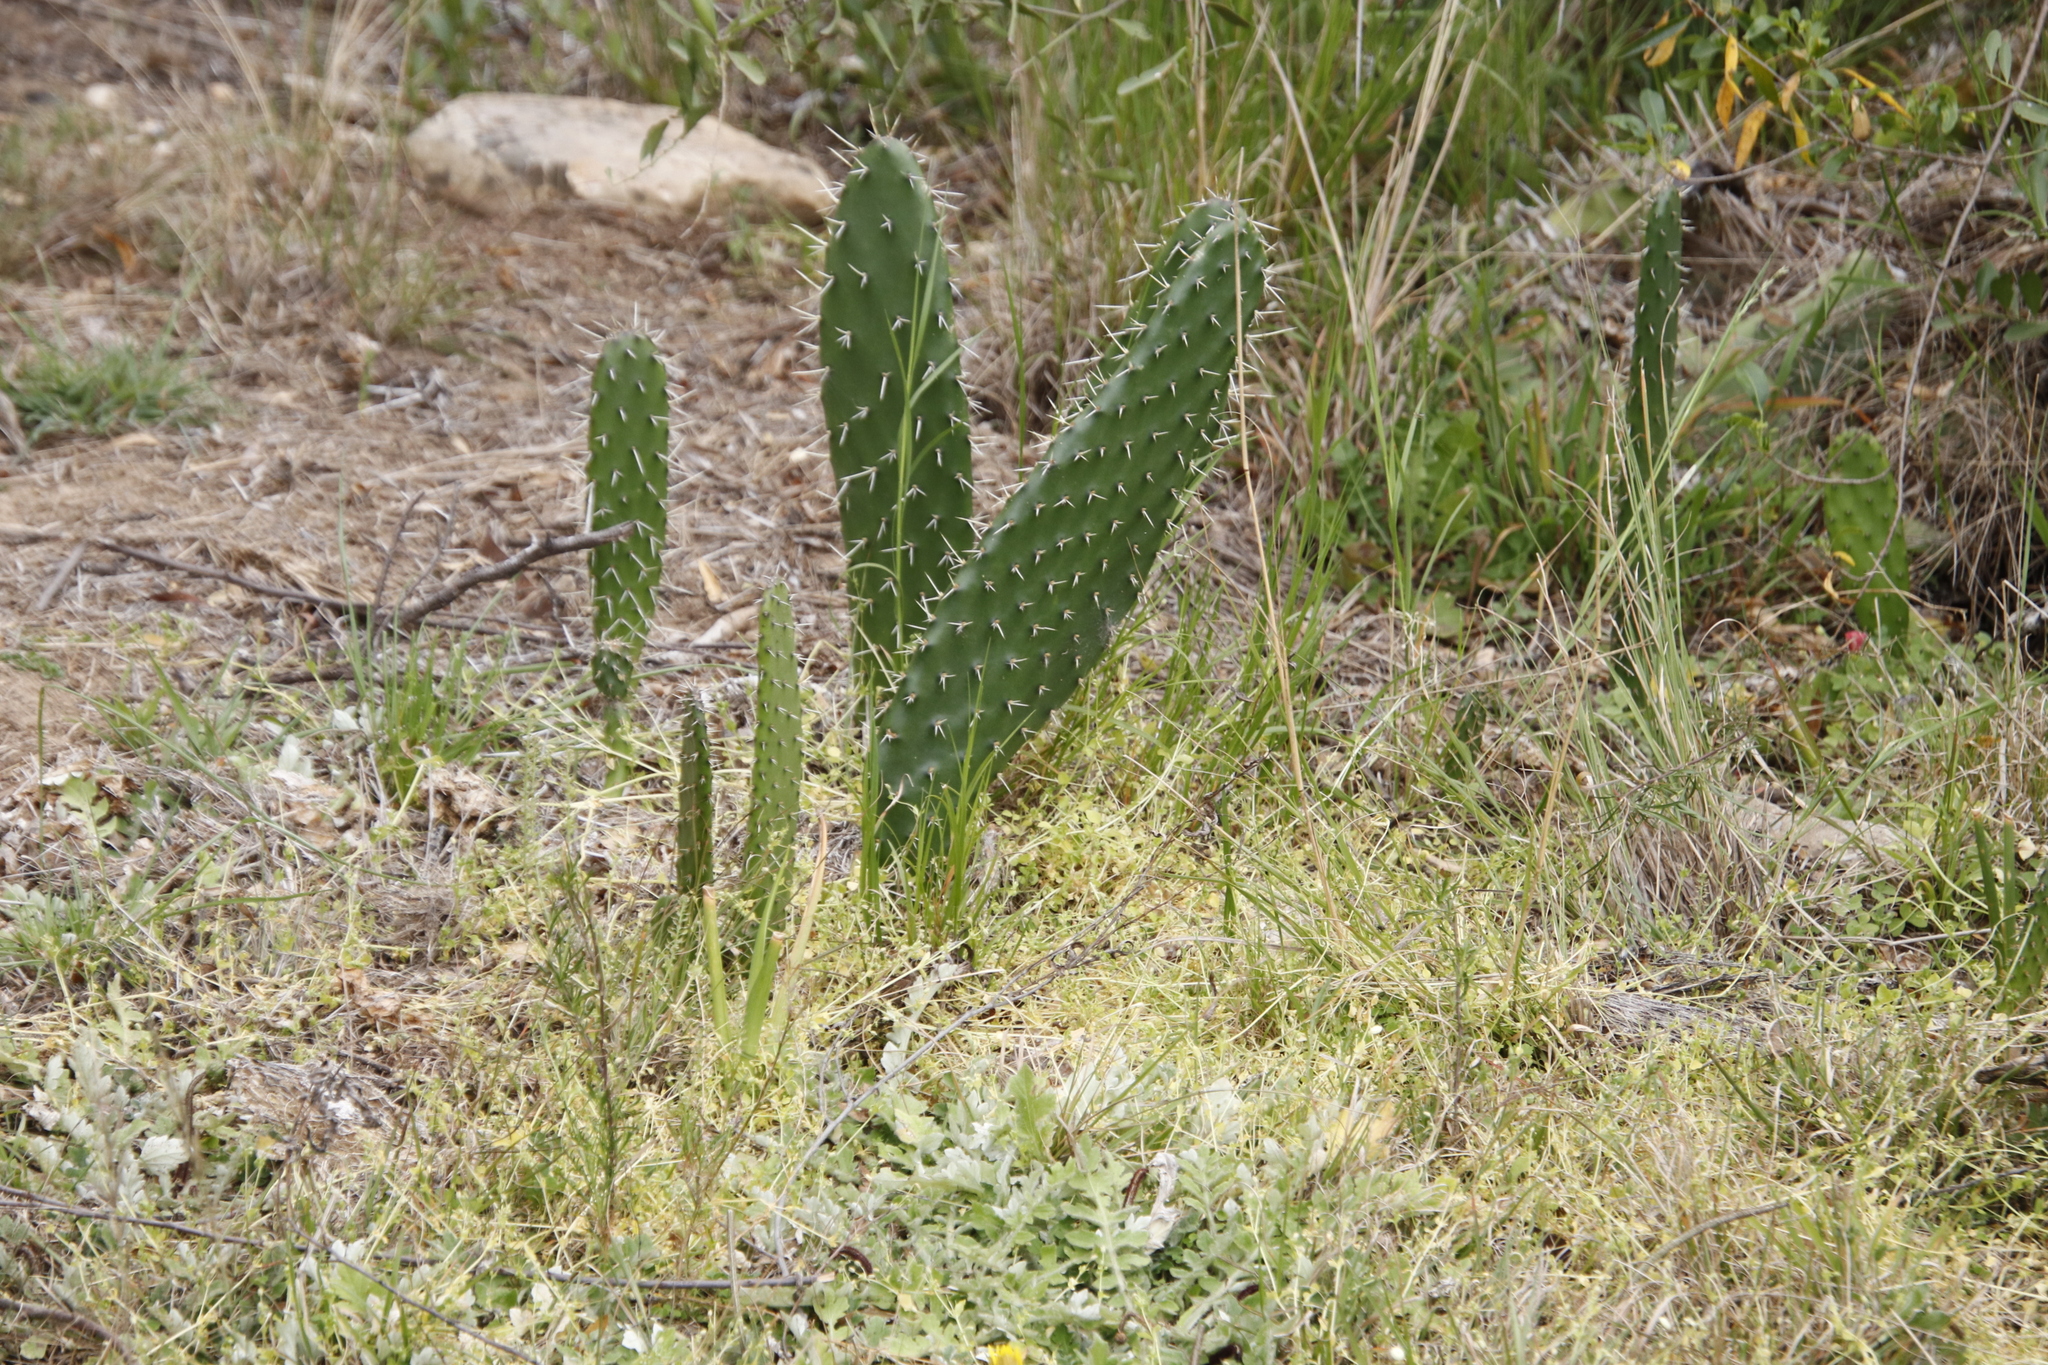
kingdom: Plantae
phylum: Tracheophyta
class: Magnoliopsida
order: Caryophyllales
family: Cactaceae
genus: Opuntia
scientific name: Opuntia ficus-indica
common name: Barbary fig
